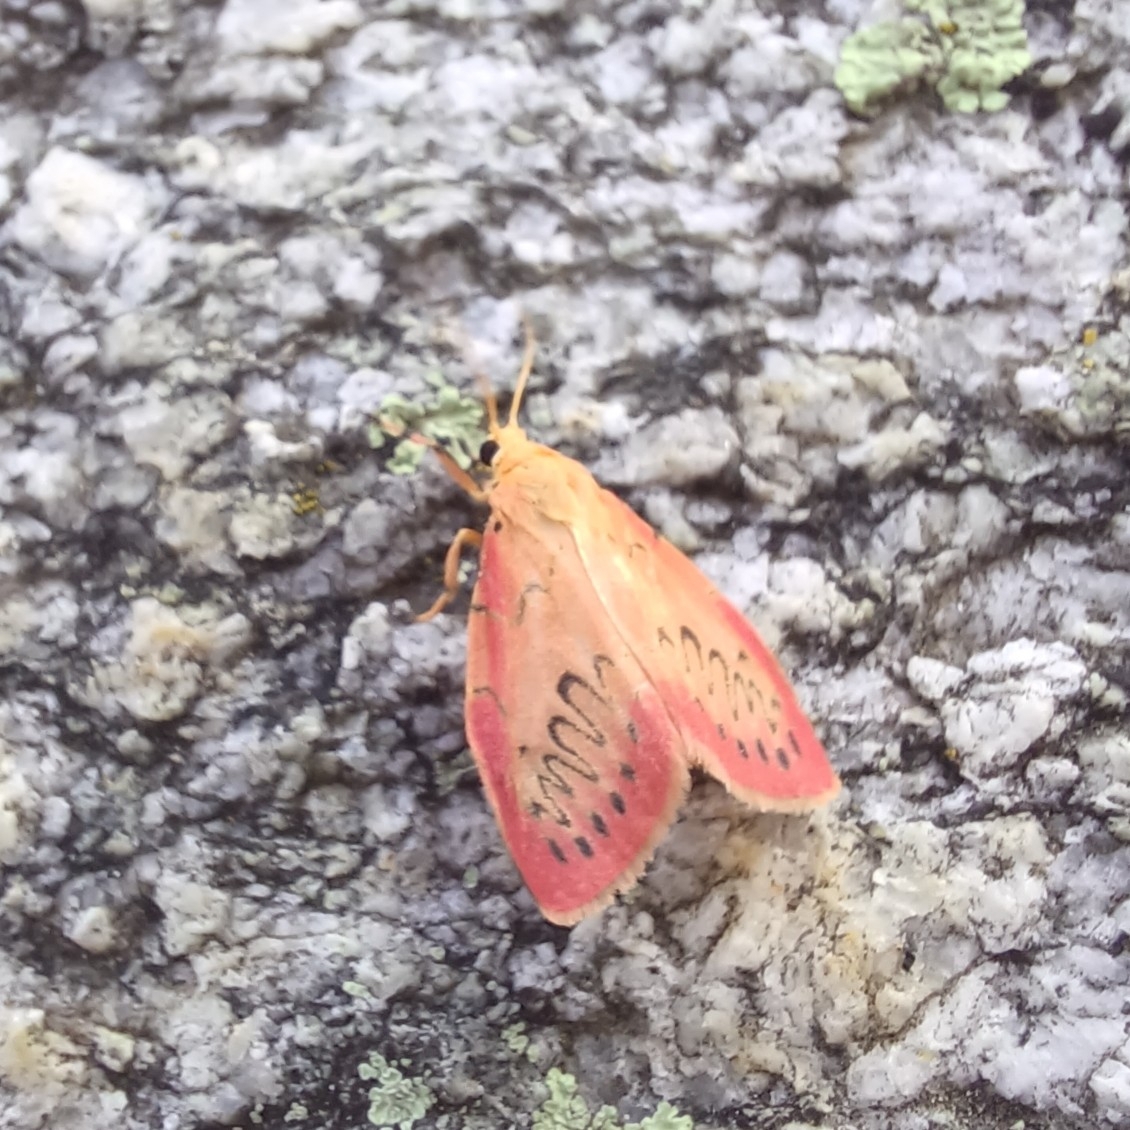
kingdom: Animalia
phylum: Arthropoda
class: Insecta
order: Lepidoptera
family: Erebidae
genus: Miltochrista
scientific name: Miltochrista miniata
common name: Rosy footman
